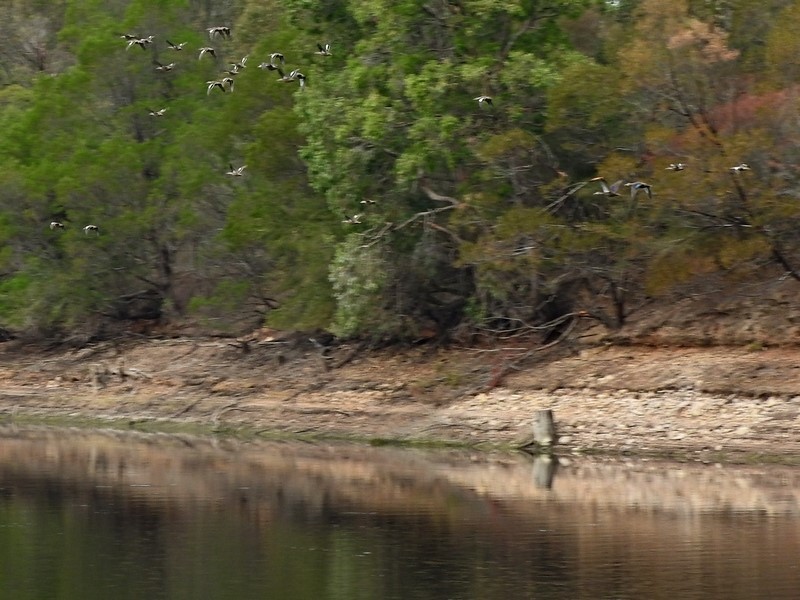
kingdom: Animalia
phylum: Chordata
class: Aves
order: Anseriformes
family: Anatidae
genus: Anas
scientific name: Anas gracilis
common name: Grey teal
